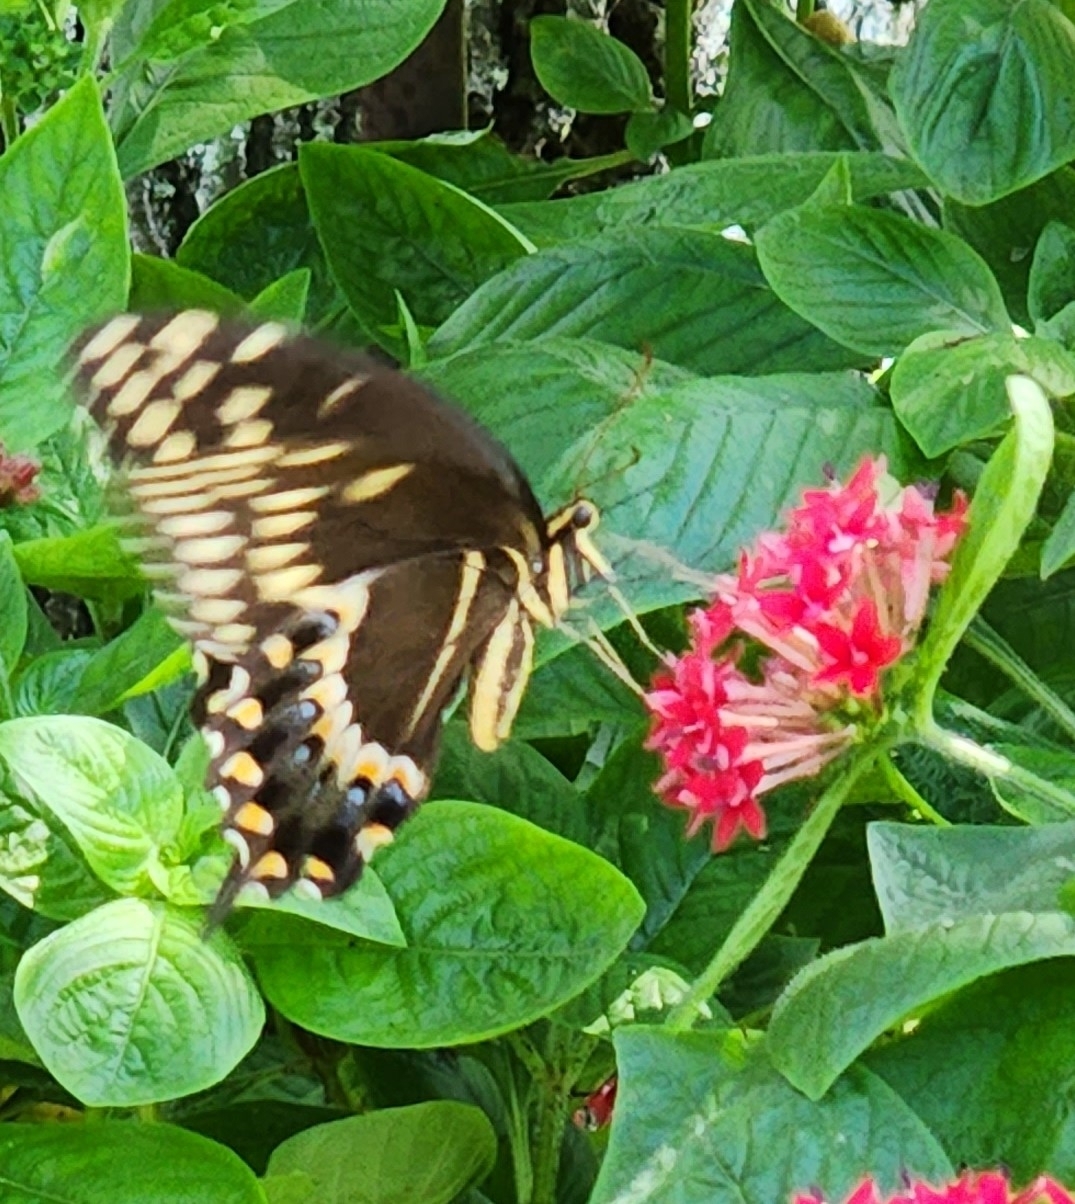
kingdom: Animalia
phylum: Arthropoda
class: Insecta
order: Lepidoptera
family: Papilionidae
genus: Papilio
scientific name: Papilio palamedes
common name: Palamedes swallowtail
